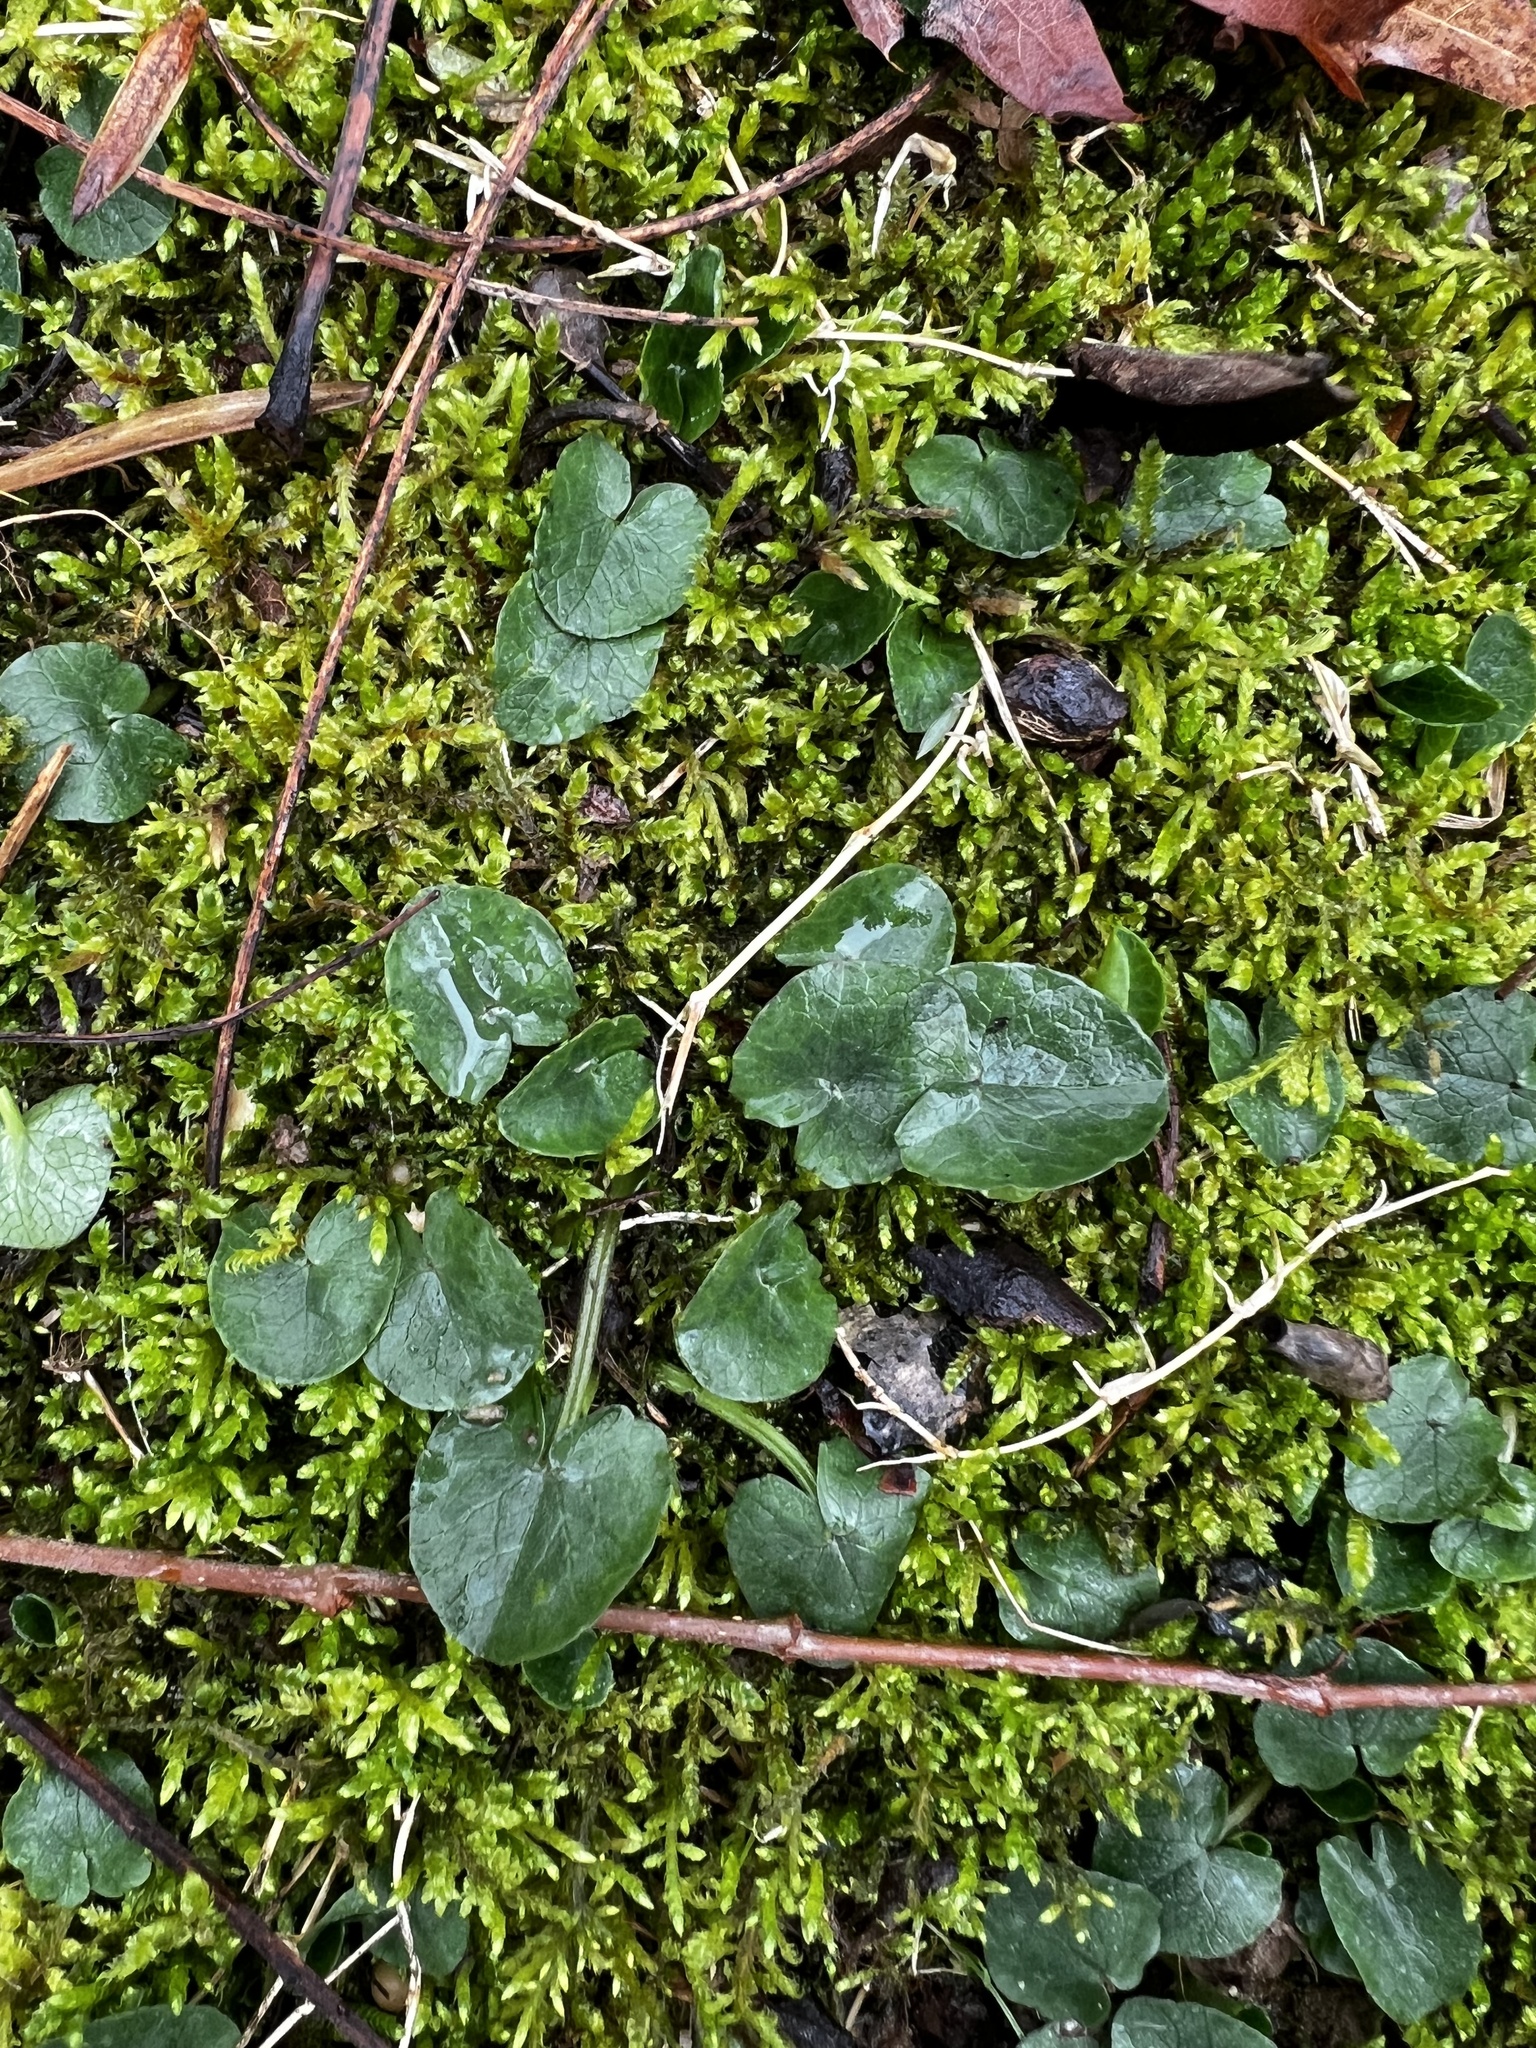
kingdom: Plantae
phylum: Tracheophyta
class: Magnoliopsida
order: Ranunculales
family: Ranunculaceae
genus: Ficaria
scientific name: Ficaria verna
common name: Lesser celandine
